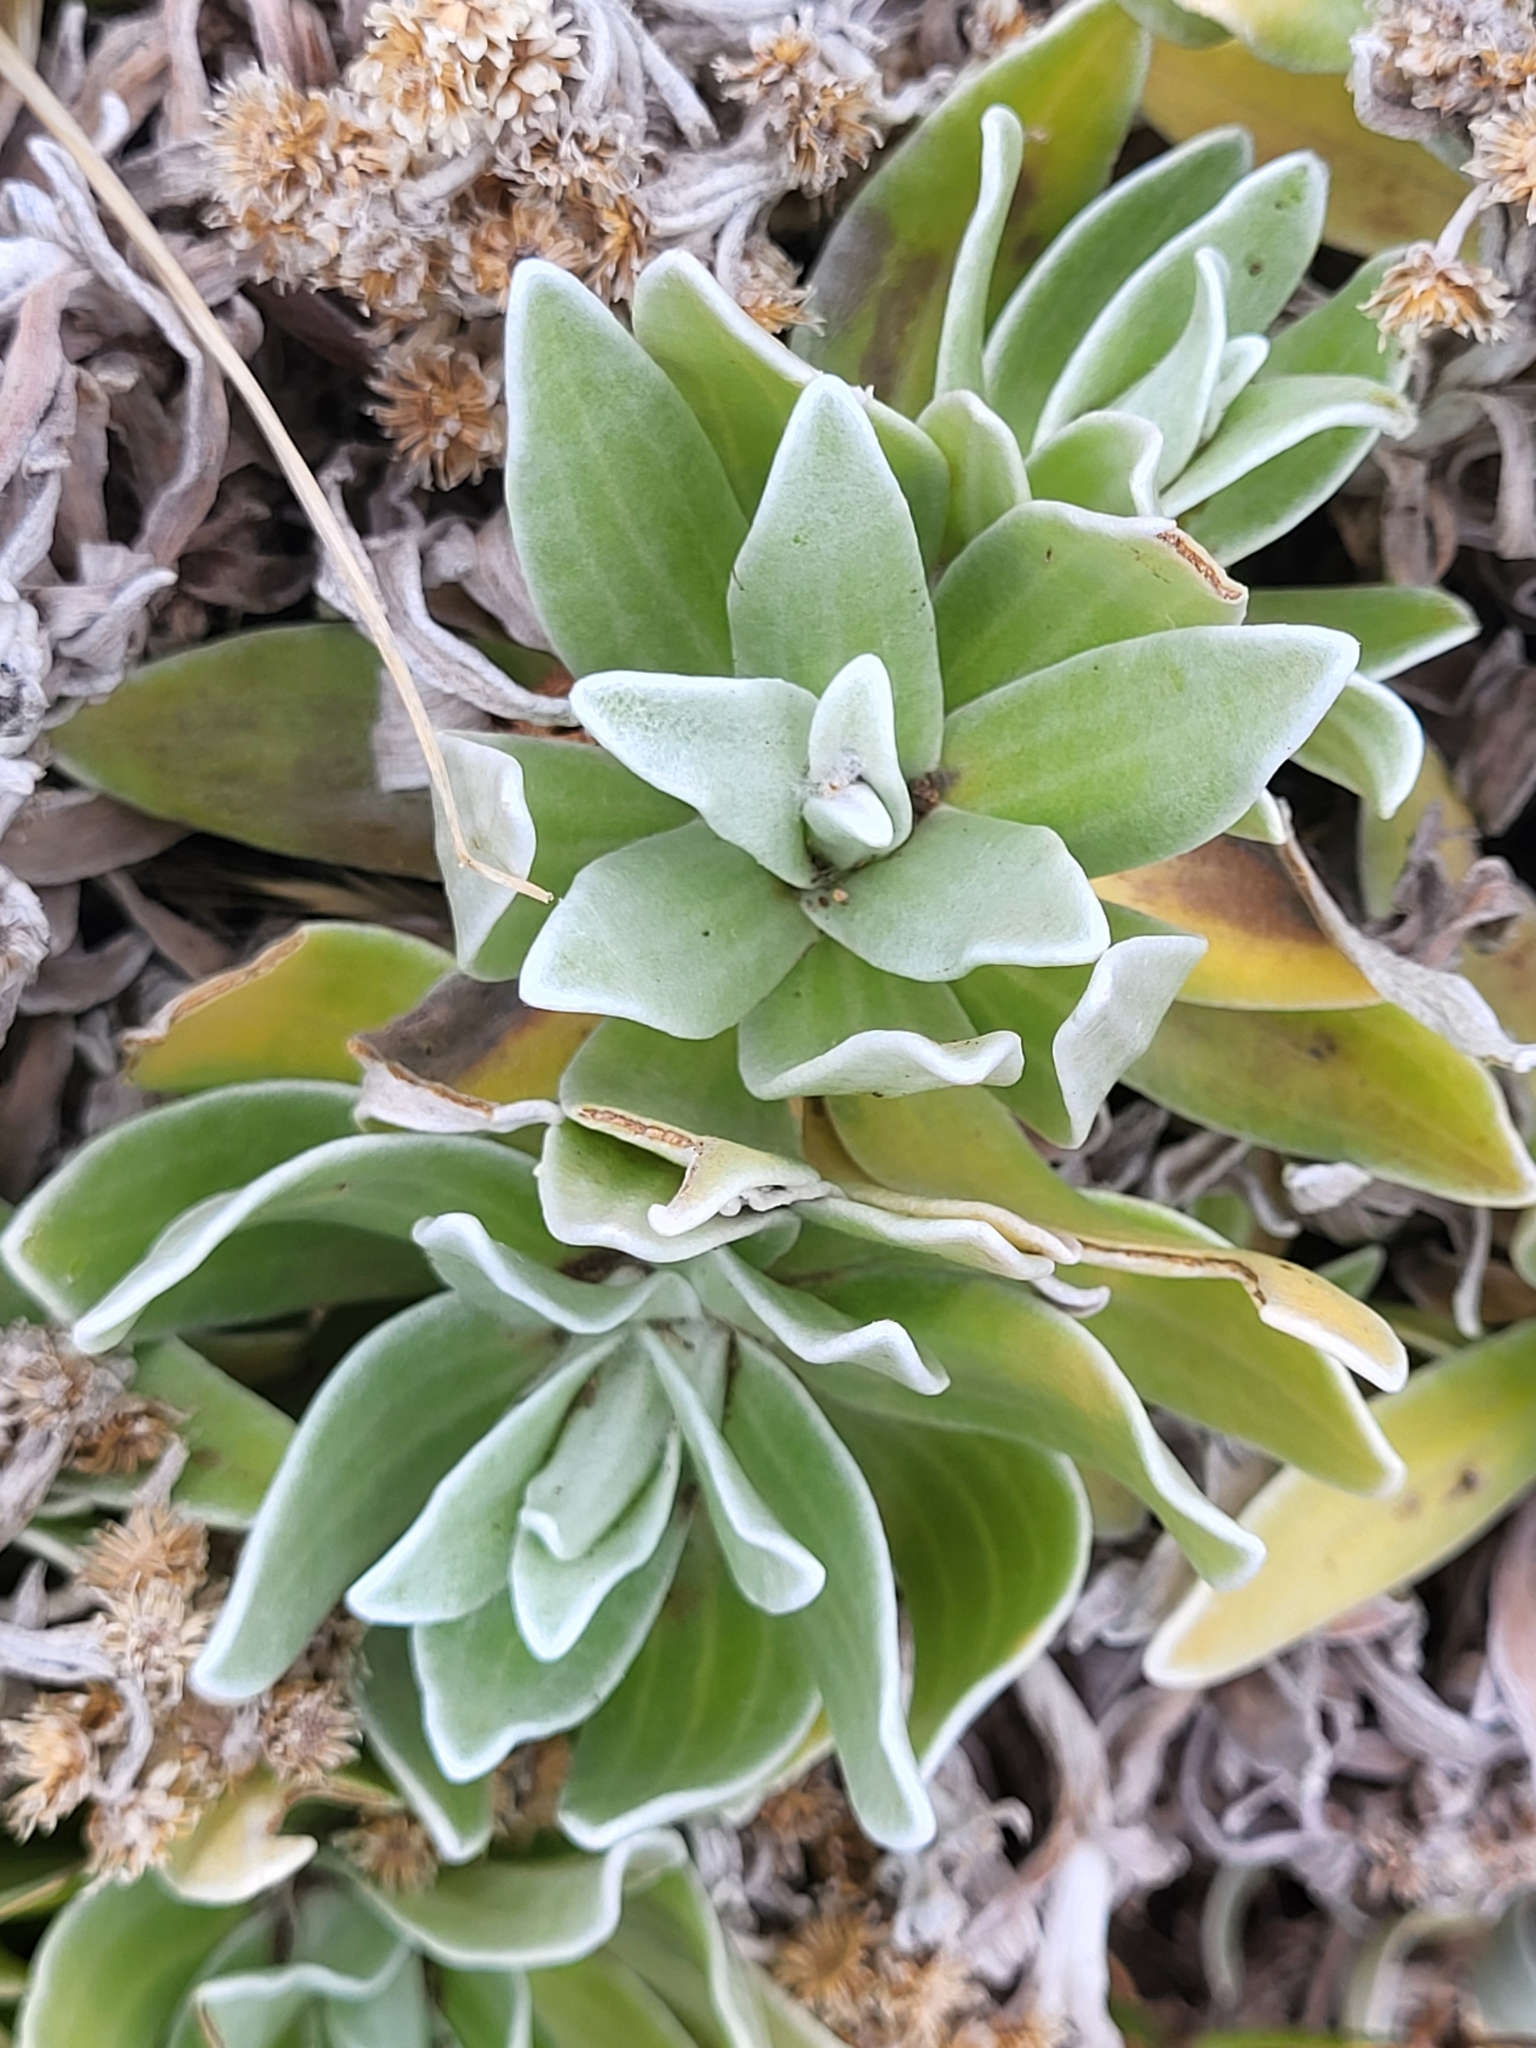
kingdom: Plantae
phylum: Tracheophyta
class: Magnoliopsida
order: Asterales
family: Asteraceae
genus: Helichrysum
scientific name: Helichrysum devium
